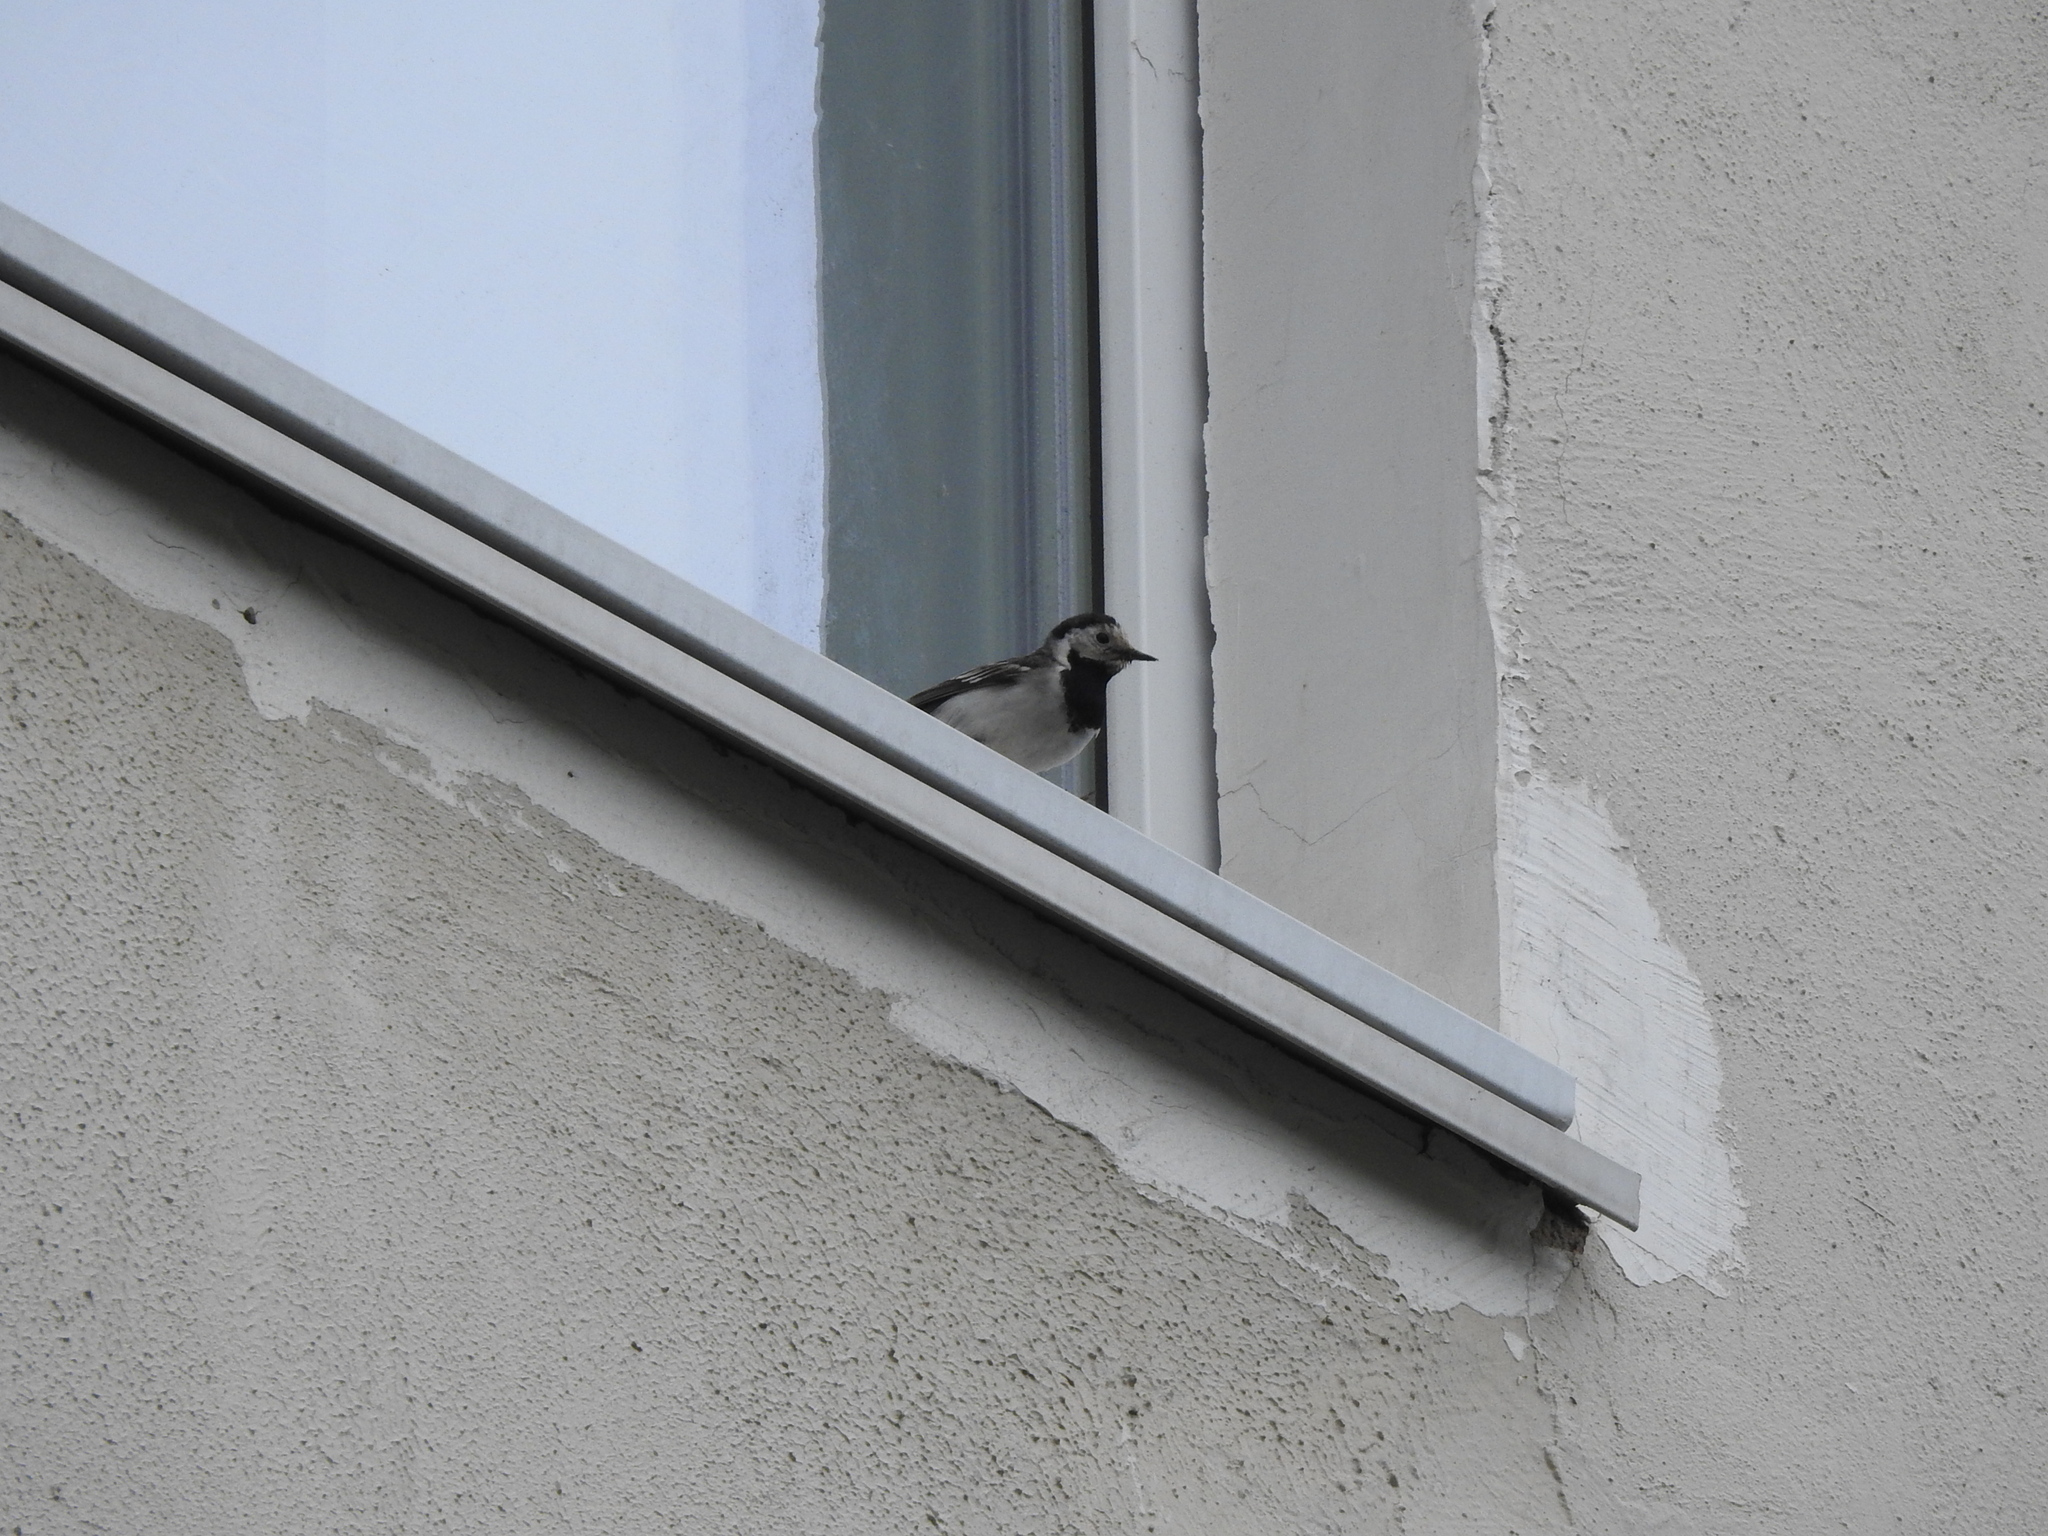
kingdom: Animalia
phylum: Chordata
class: Aves
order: Passeriformes
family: Motacillidae
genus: Motacilla
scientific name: Motacilla alba
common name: White wagtail
